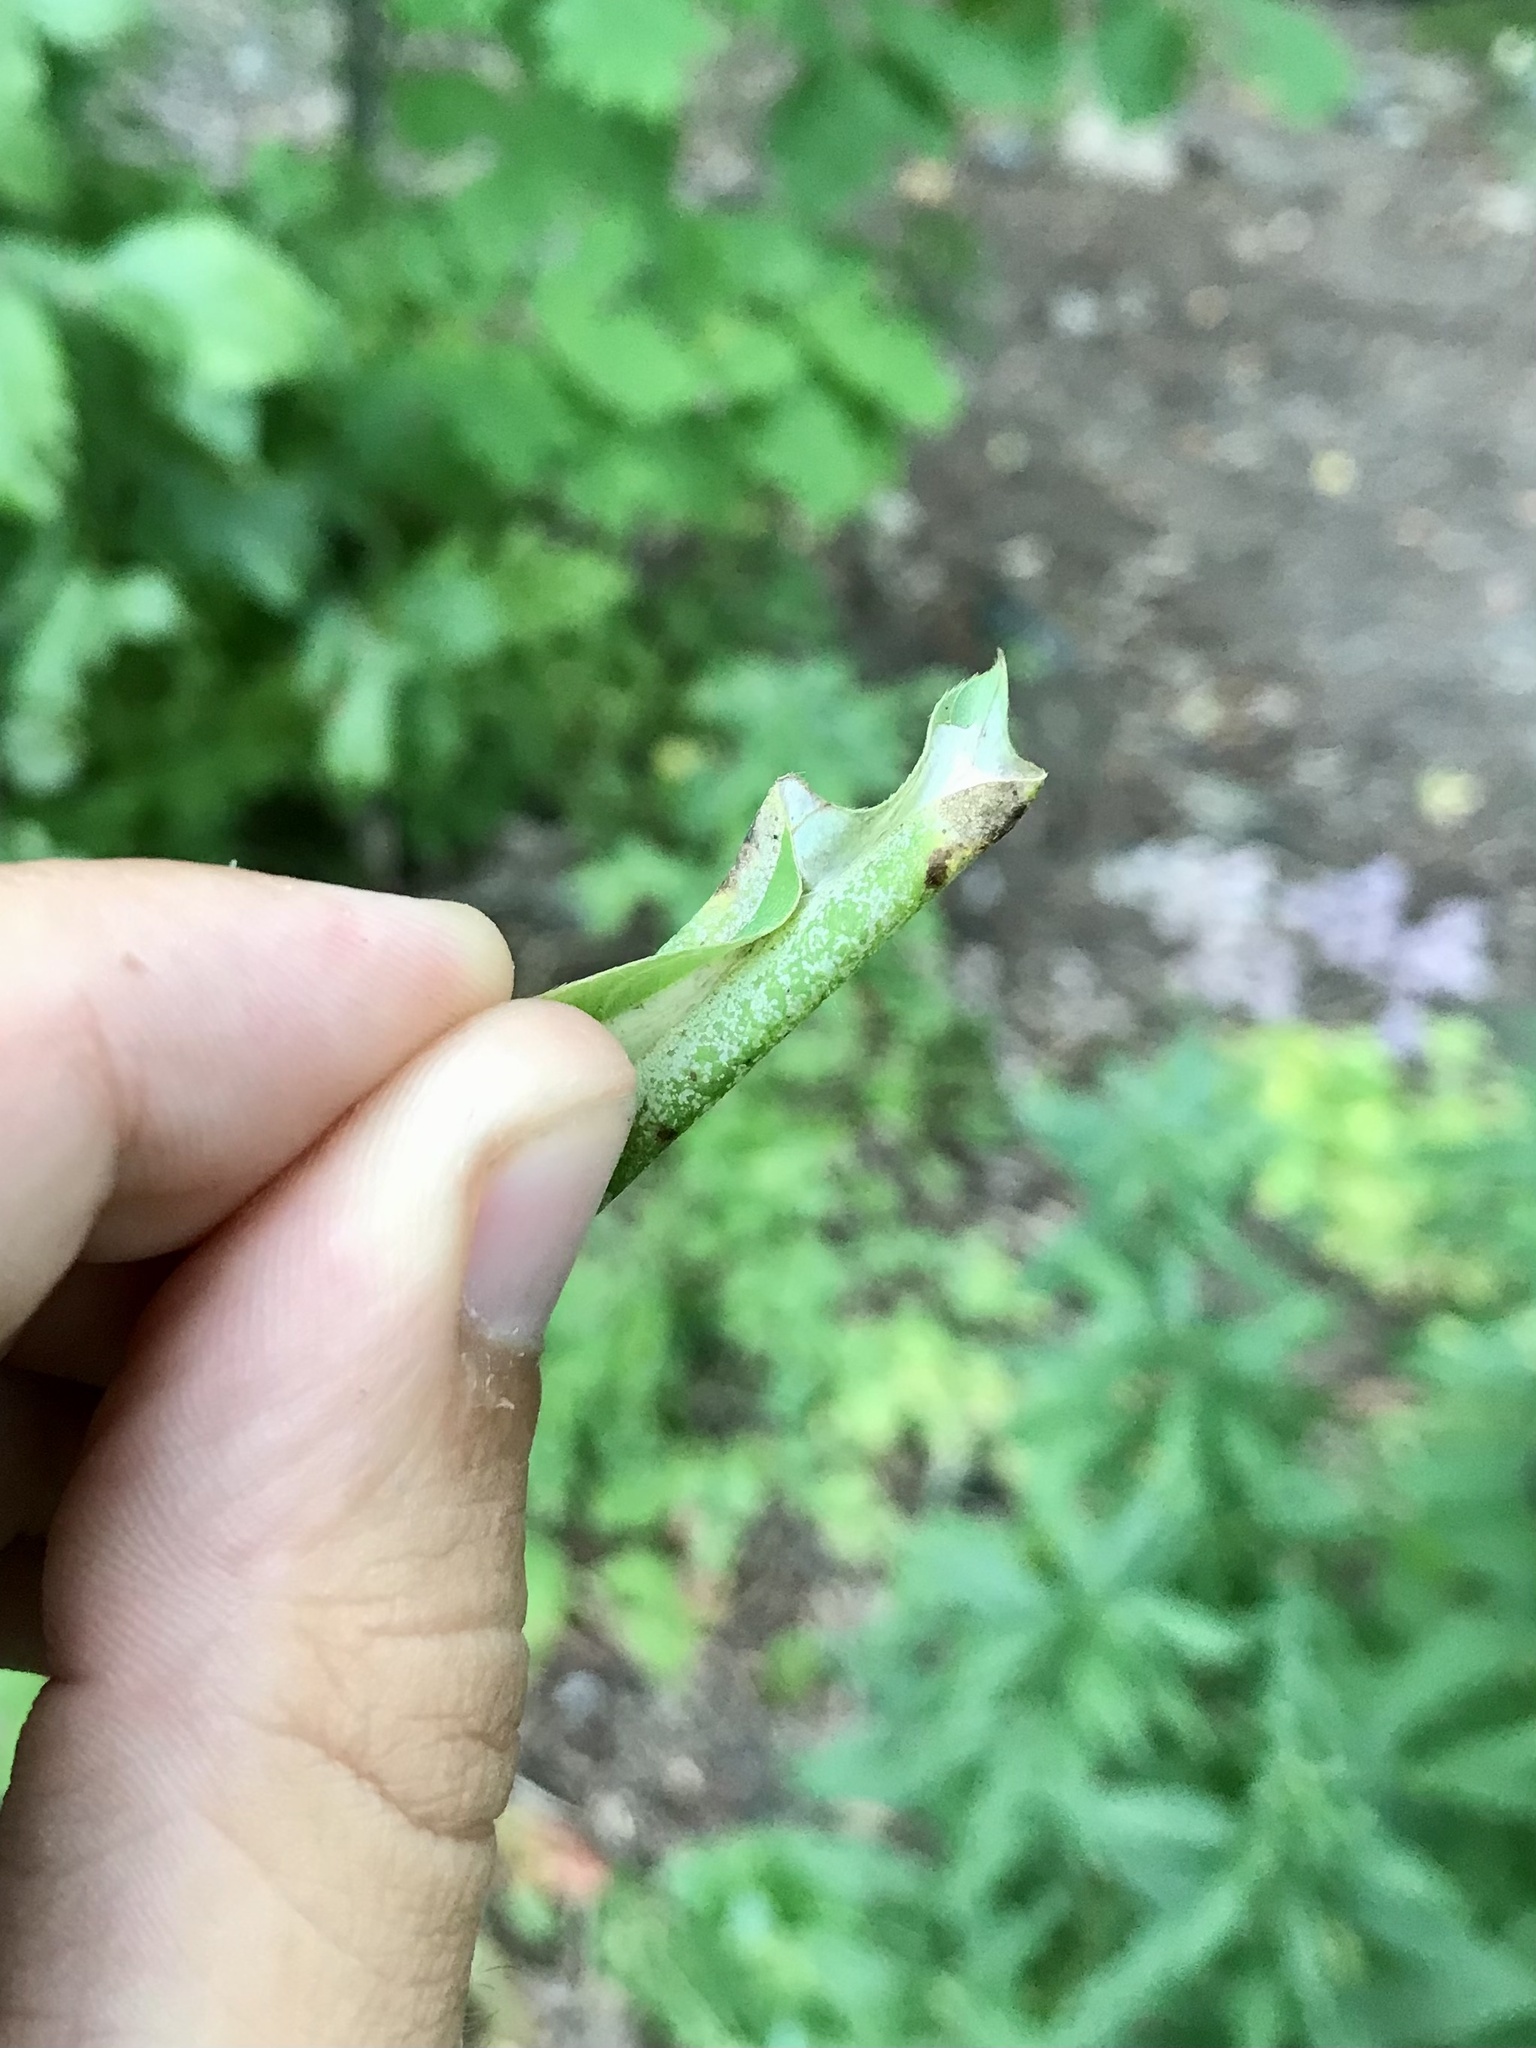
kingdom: Animalia
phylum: Arthropoda
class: Insecta
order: Lepidoptera
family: Gracillariidae
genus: Macrosaccus
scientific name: Macrosaccus morrisella
